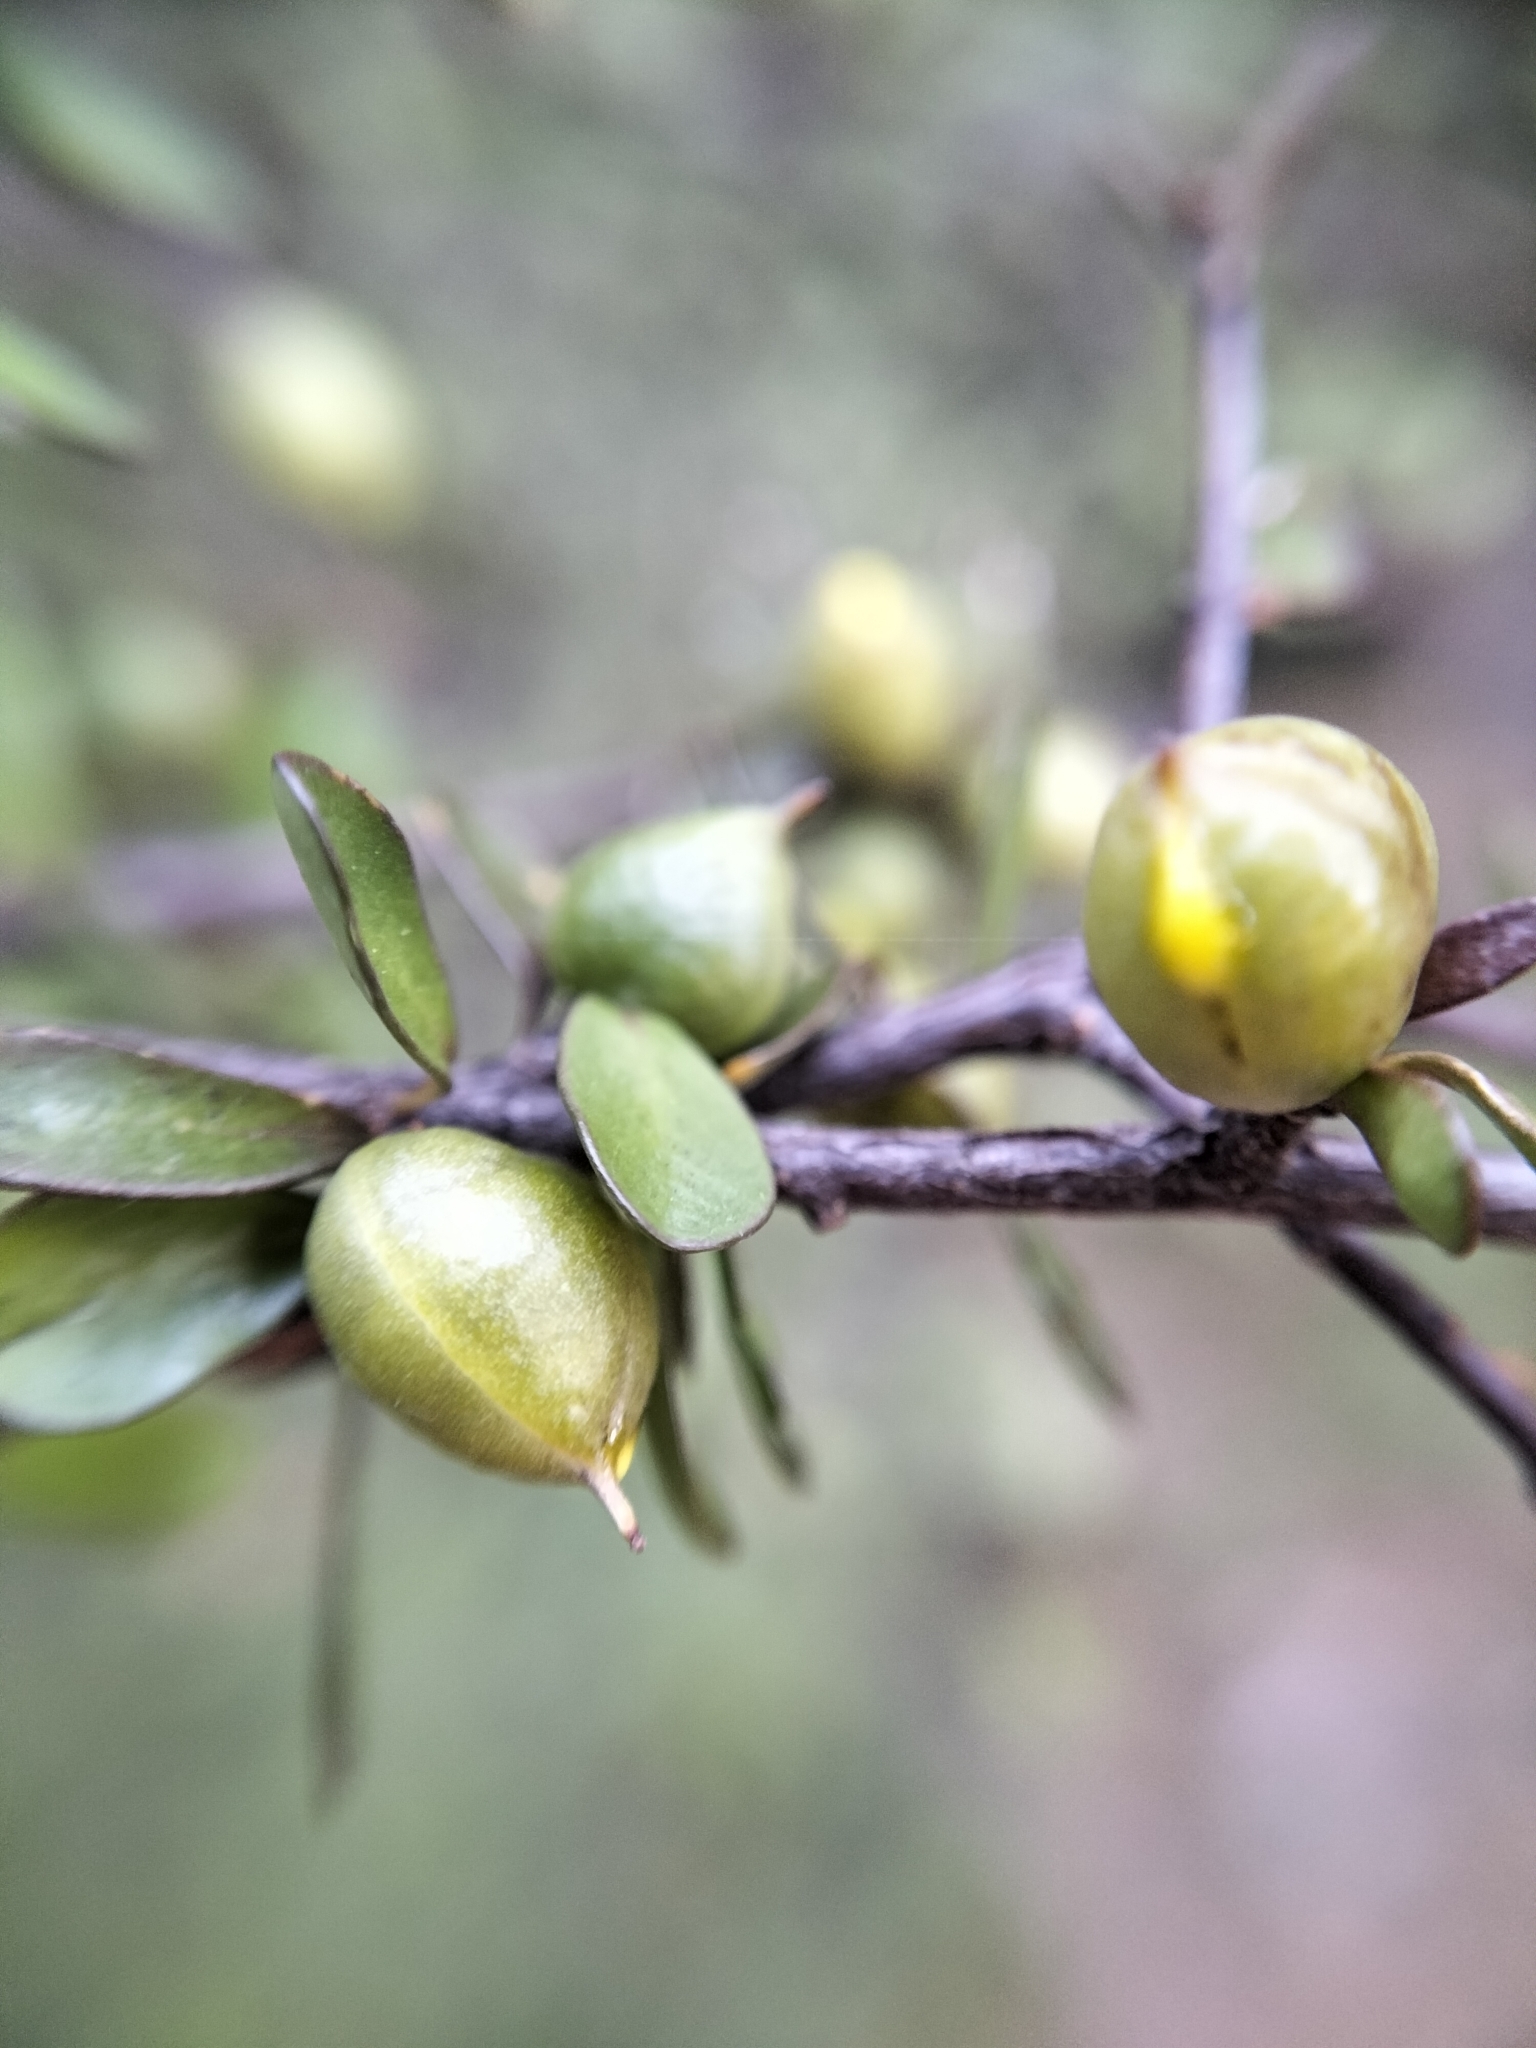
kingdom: Plantae
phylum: Tracheophyta
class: Magnoliopsida
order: Apiales
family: Pittosporaceae
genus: Pittosporum
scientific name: Pittosporum divaricatum
